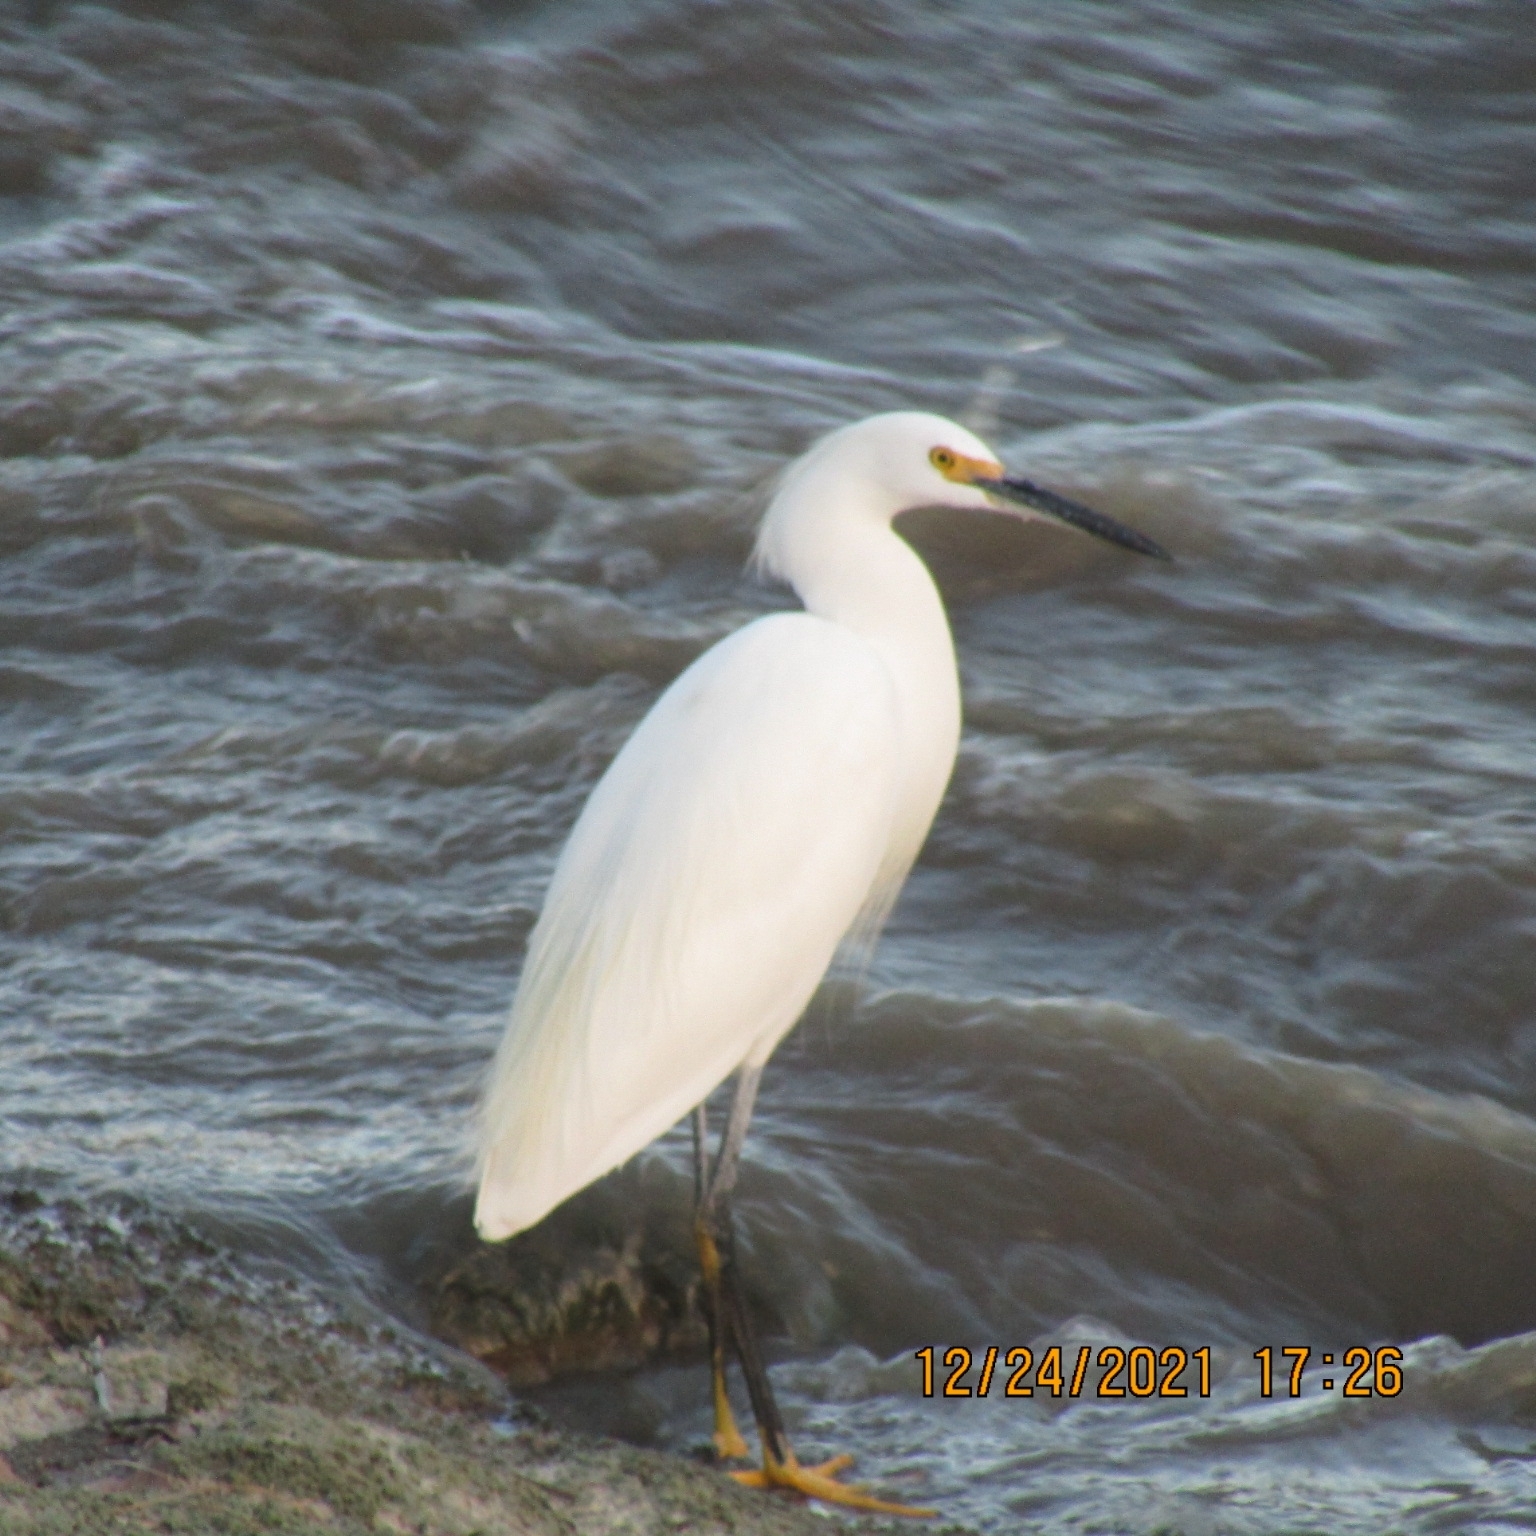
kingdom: Animalia
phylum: Chordata
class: Aves
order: Pelecaniformes
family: Ardeidae
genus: Egretta
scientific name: Egretta thula
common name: Snowy egret
